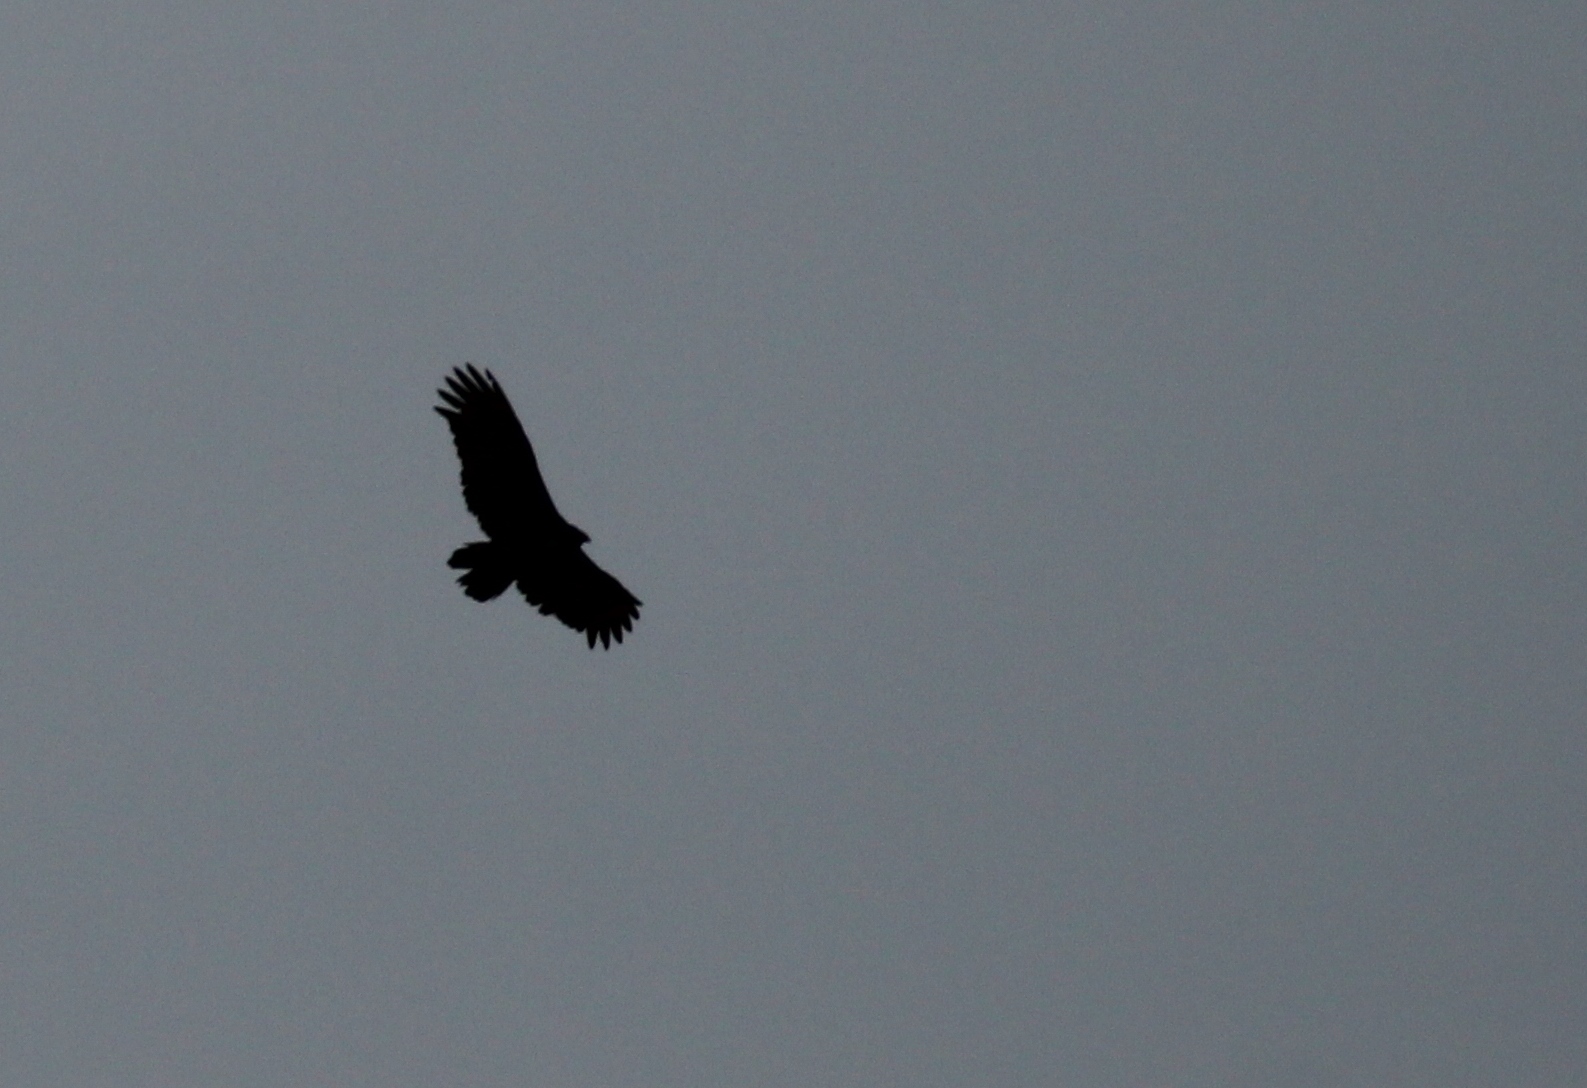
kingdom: Animalia
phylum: Chordata
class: Aves
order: Accipitriformes
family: Cathartidae
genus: Cathartes
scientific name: Cathartes aura
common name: Turkey vulture
